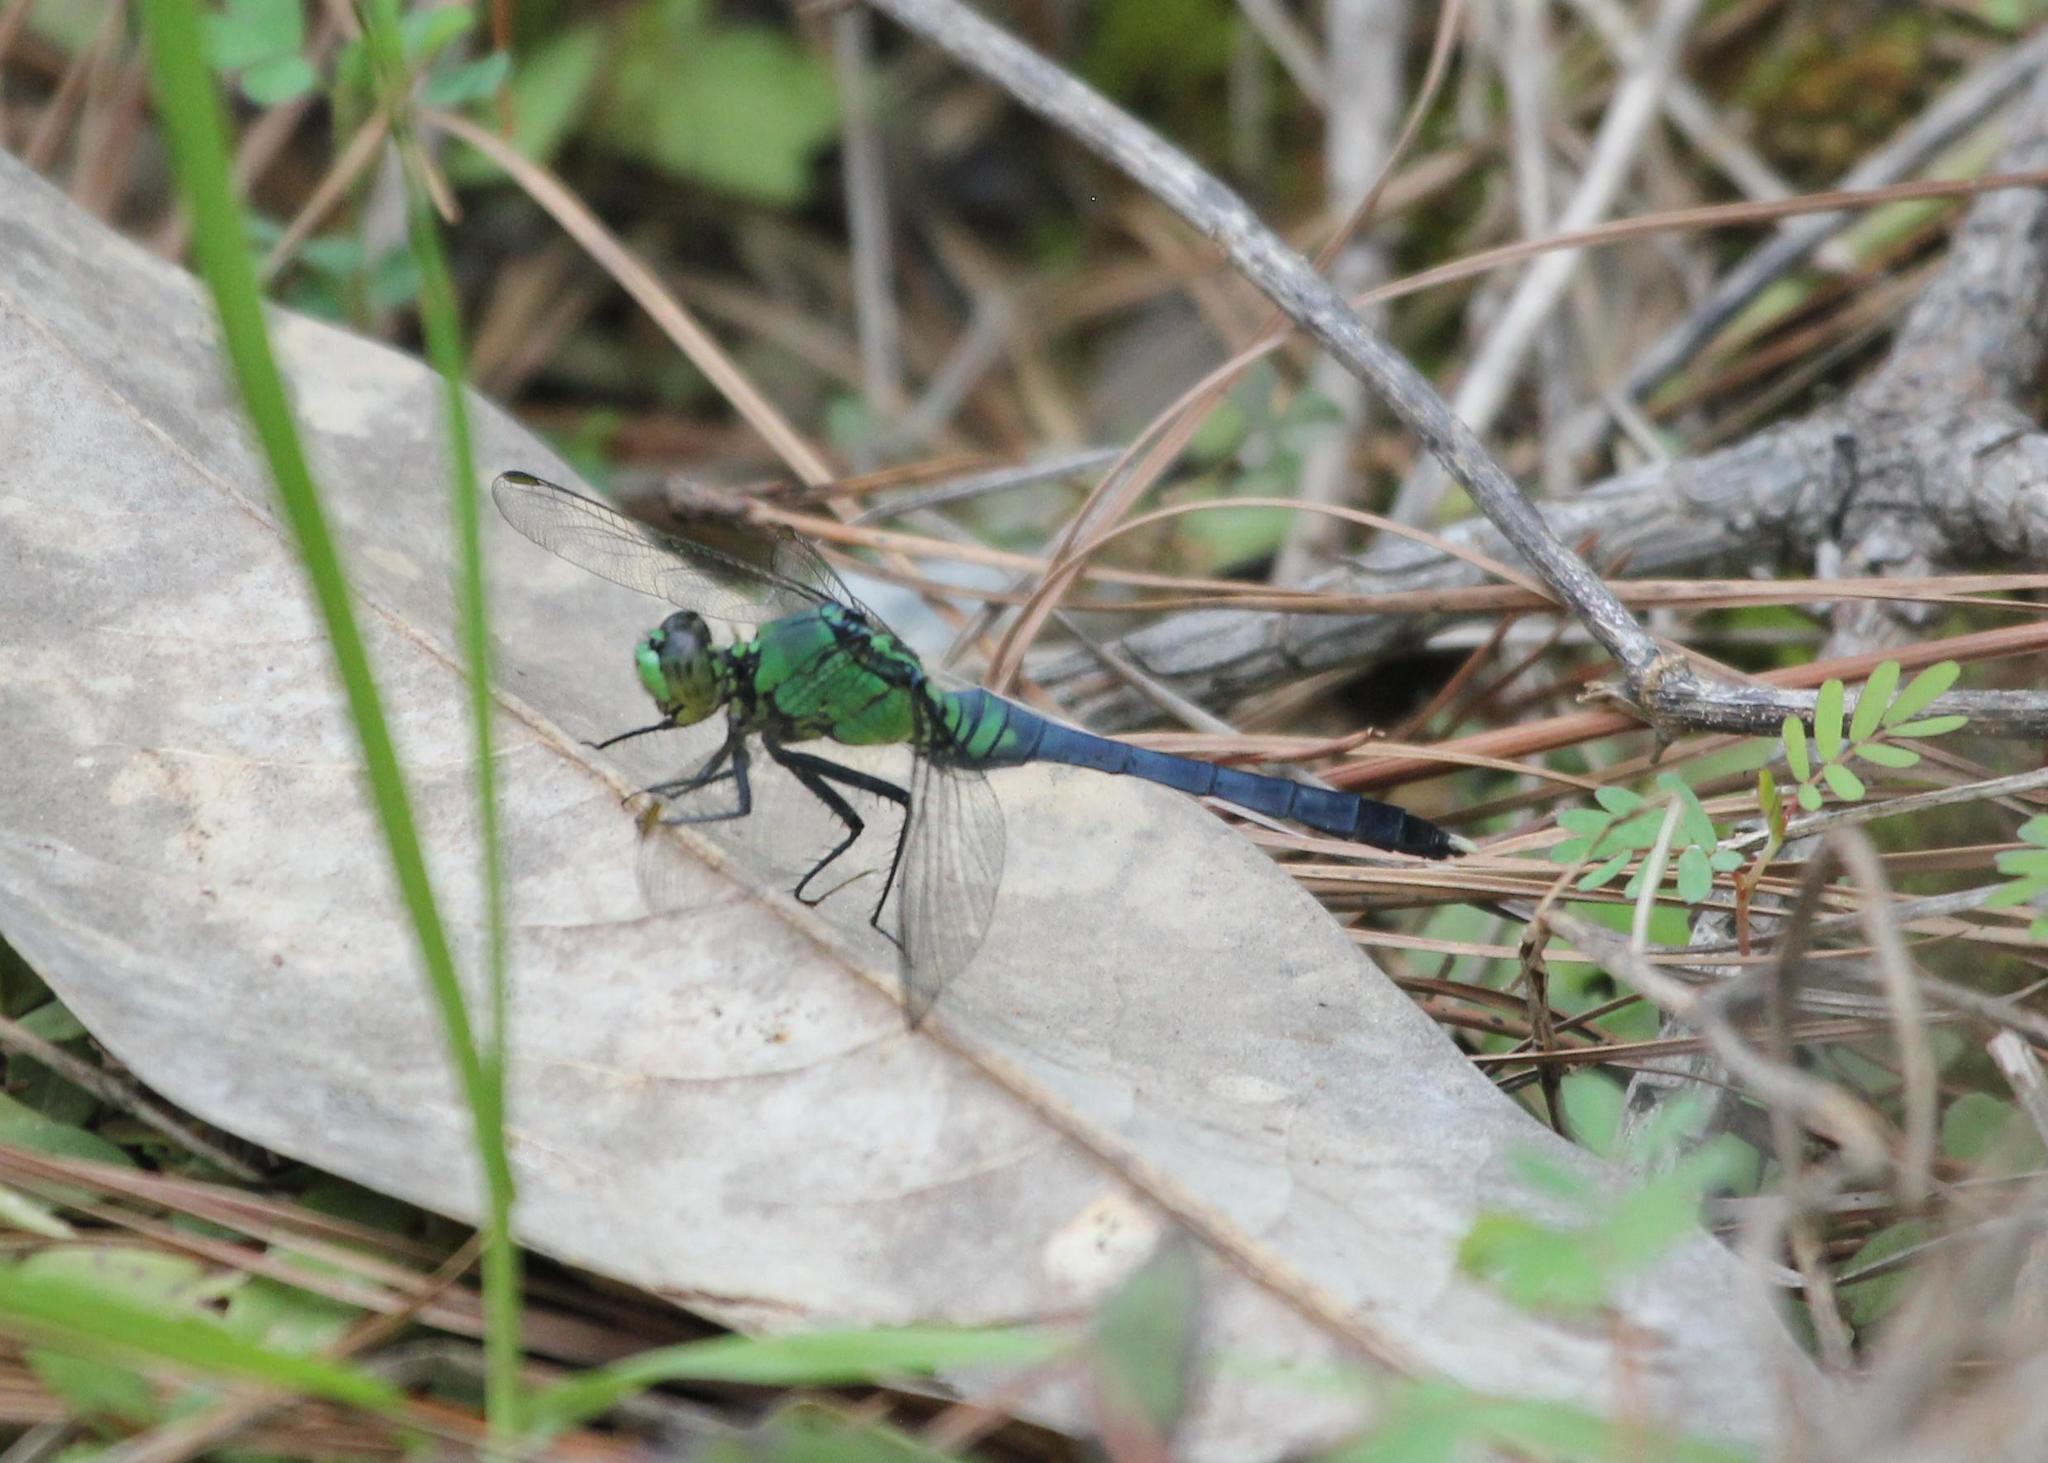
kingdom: Animalia
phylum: Arthropoda
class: Insecta
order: Odonata
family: Libellulidae
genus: Erythemis
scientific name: Erythemis simplicicollis
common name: Eastern pondhawk
